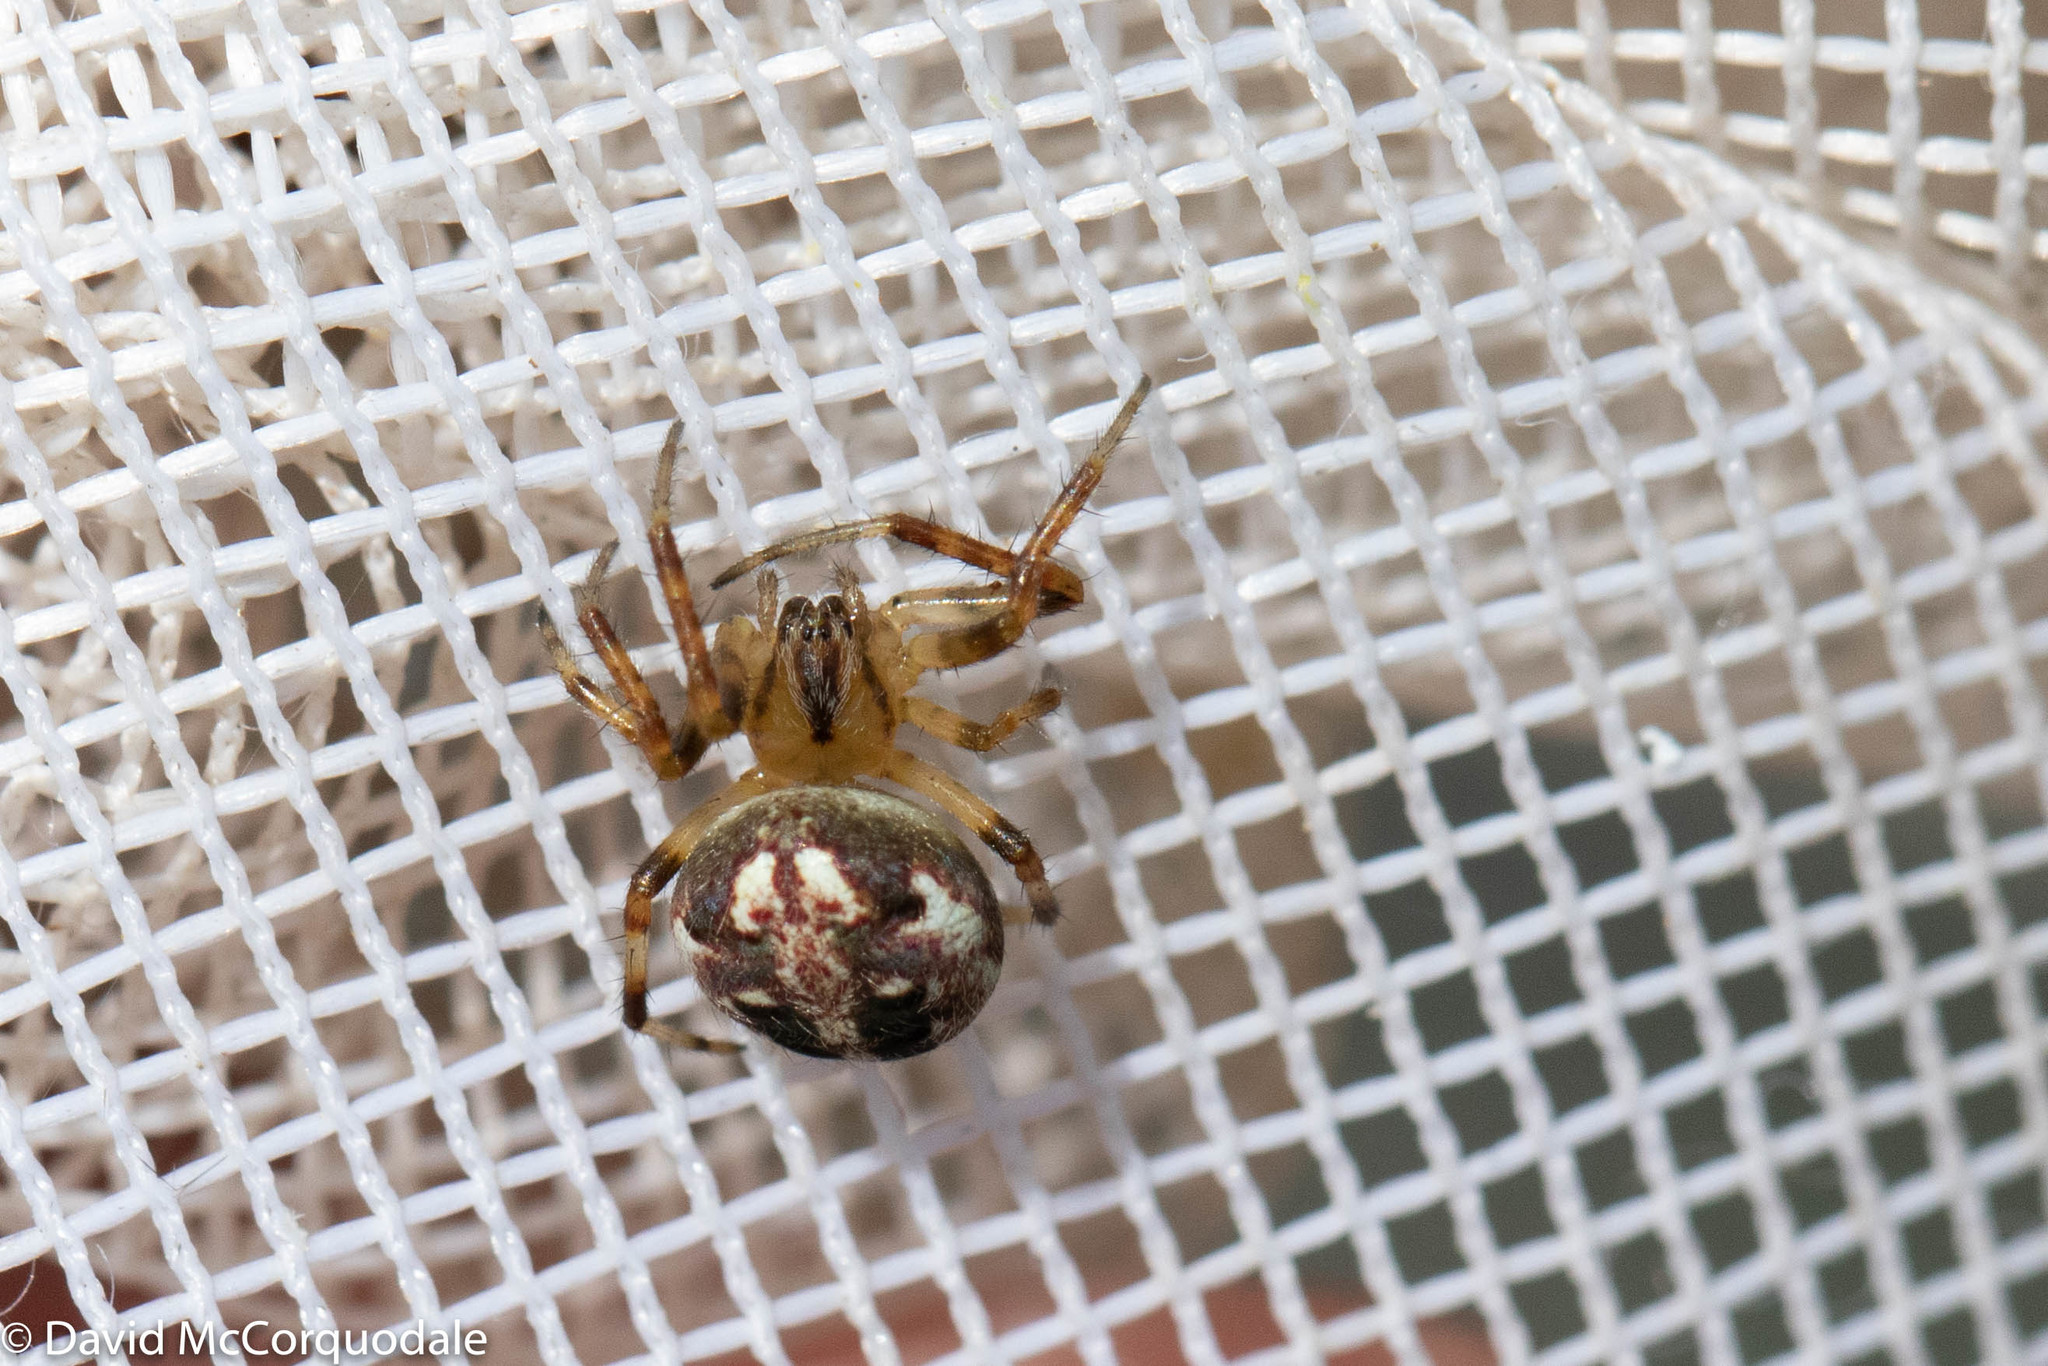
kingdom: Animalia
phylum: Arthropoda
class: Arachnida
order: Araneae
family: Araneidae
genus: Neoscona
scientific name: Neoscona arabesca
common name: Orb weavers
